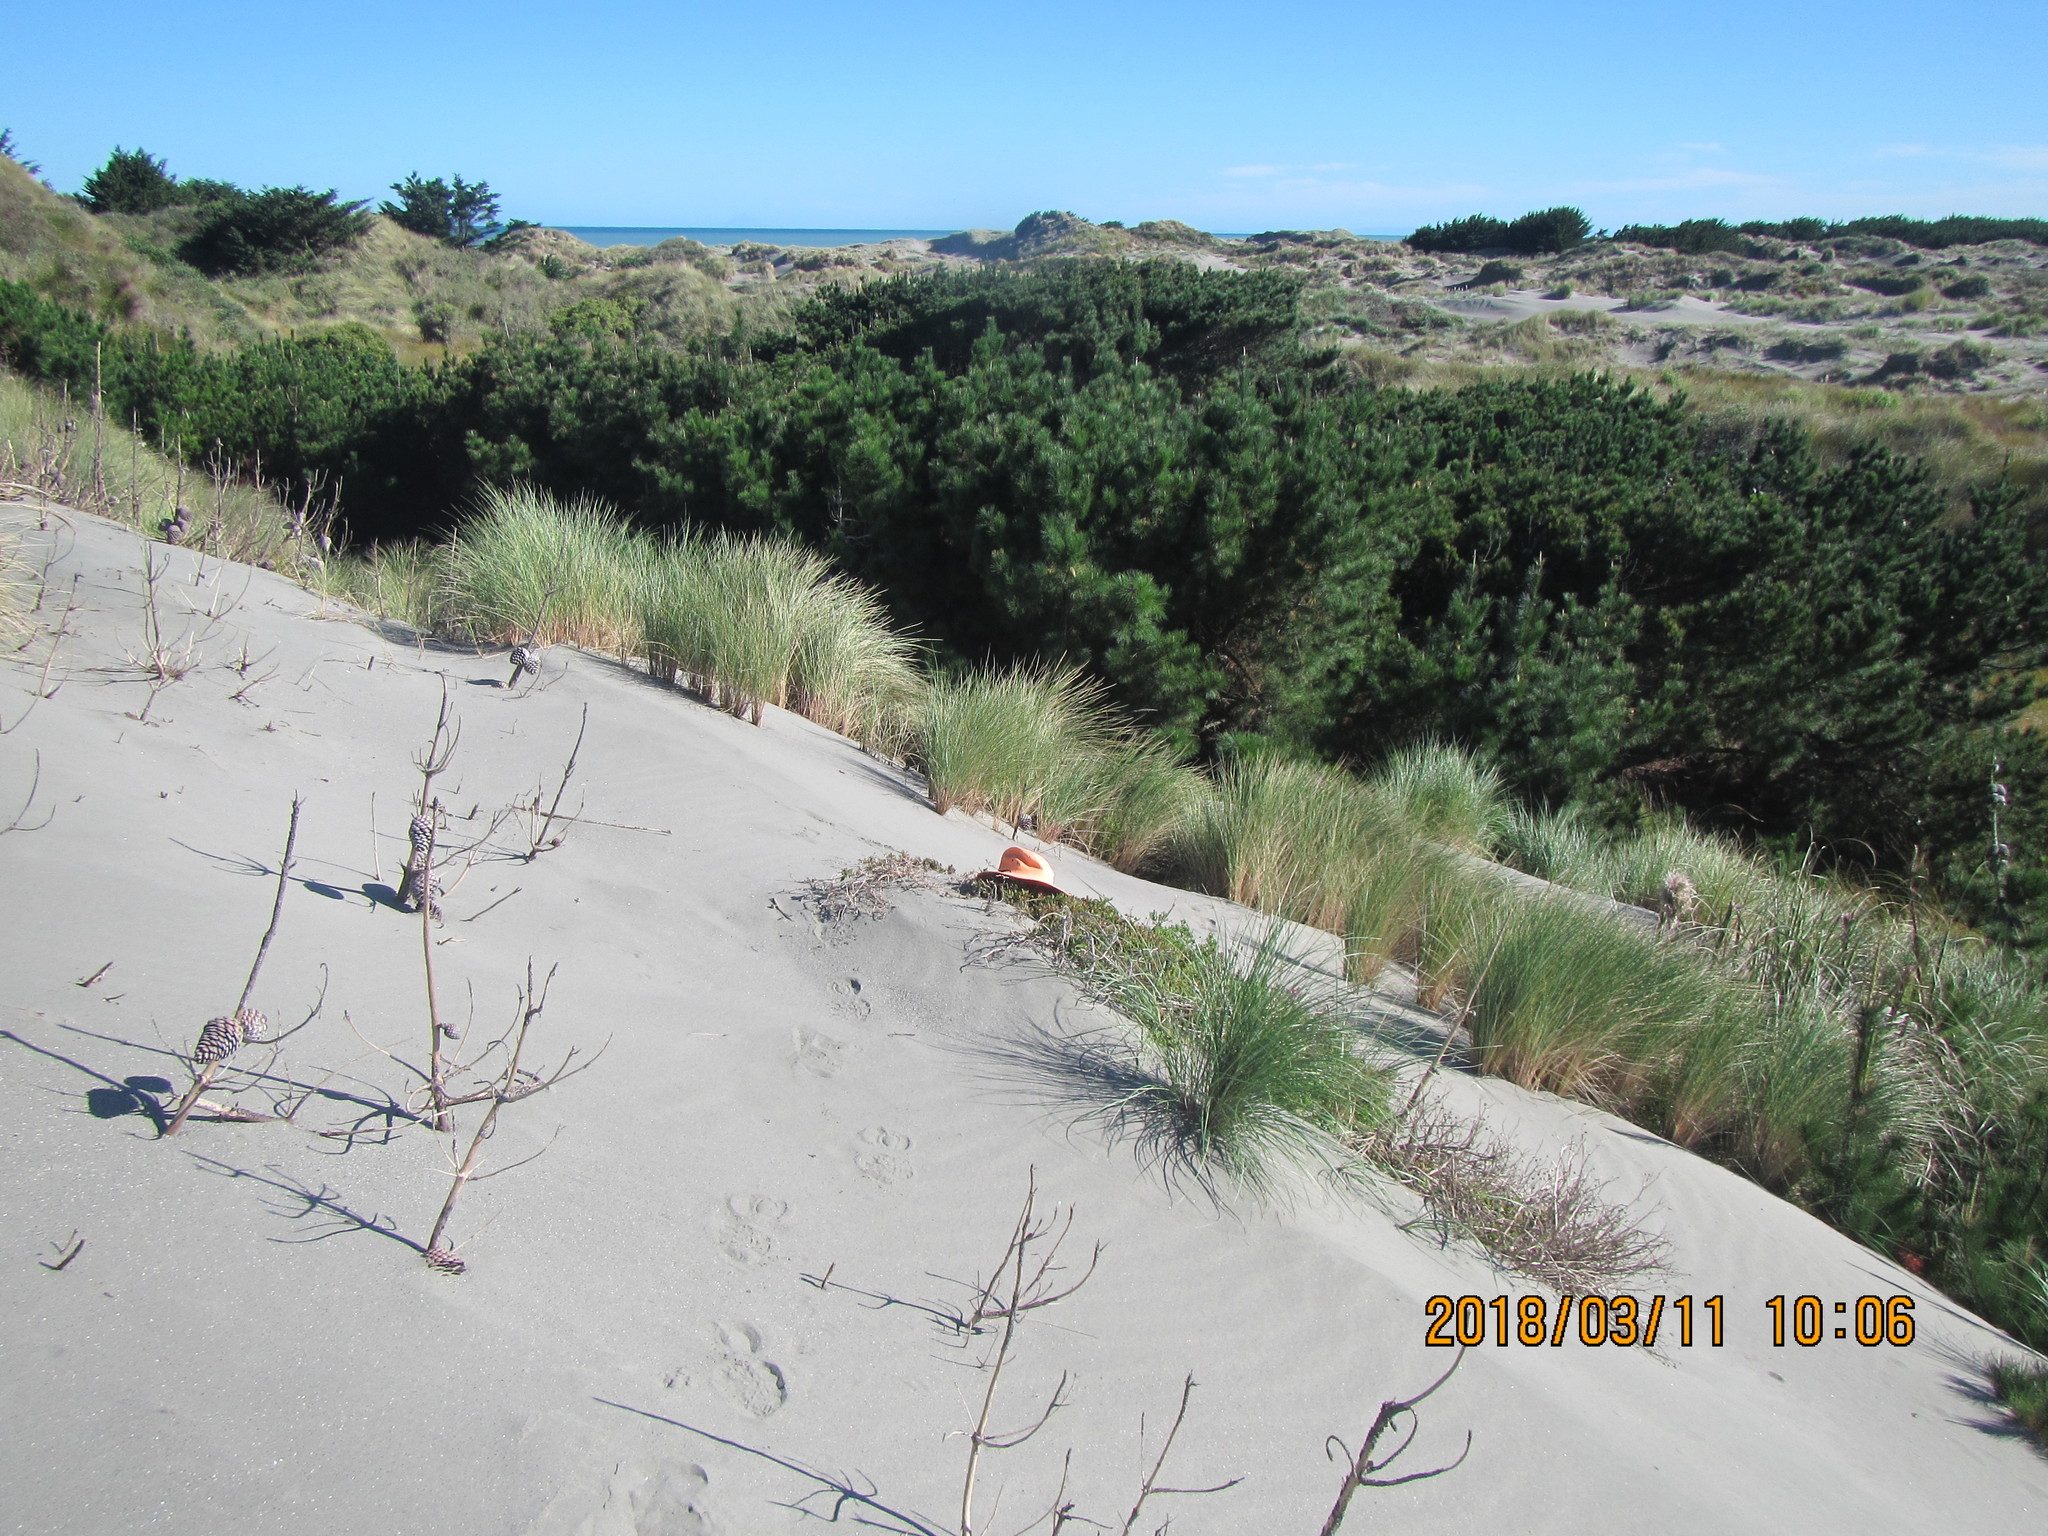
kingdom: Plantae
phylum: Tracheophyta
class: Magnoliopsida
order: Caryophyllales
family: Aizoaceae
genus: Tetragonia
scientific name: Tetragonia implexicoma
